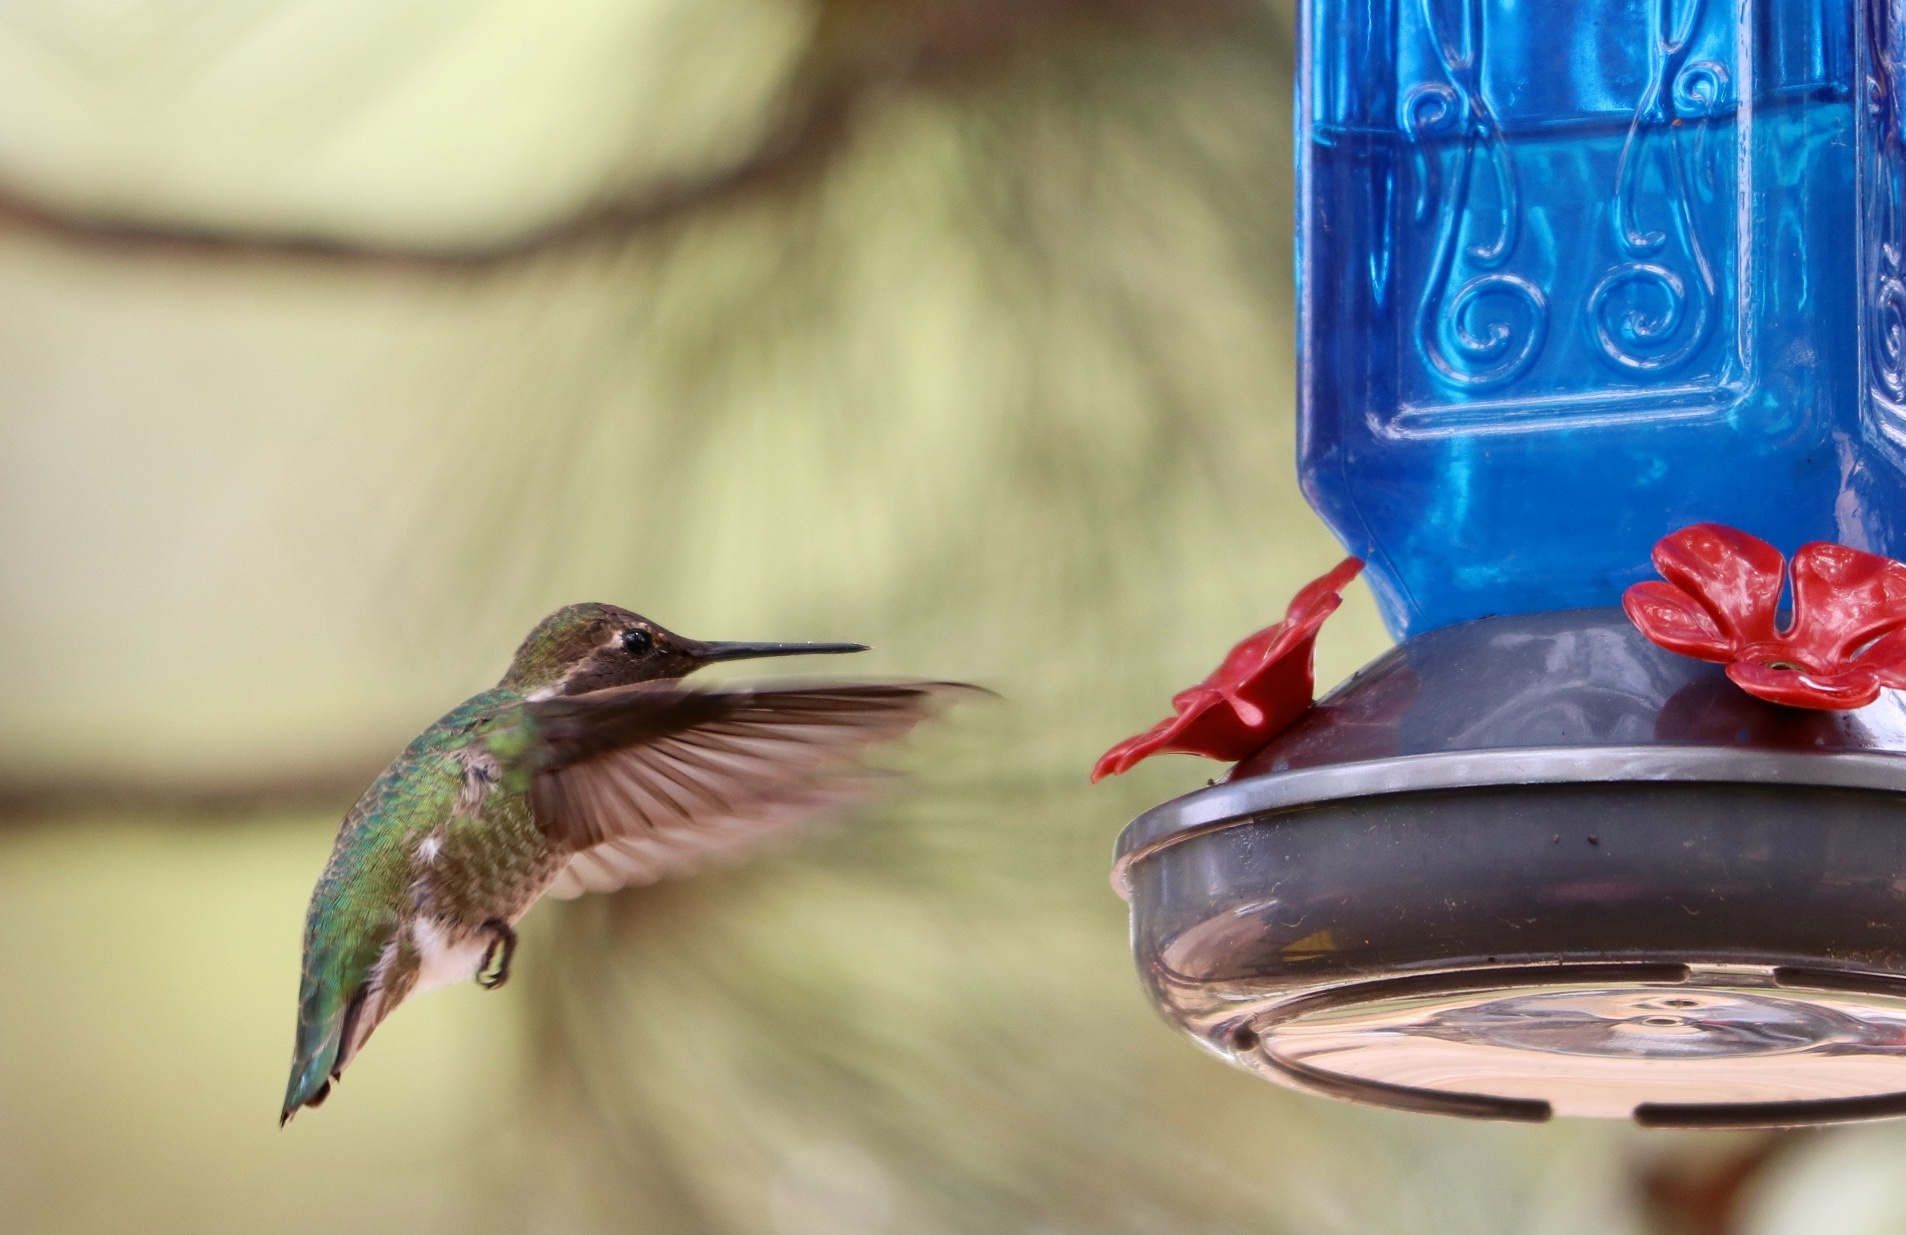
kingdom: Animalia
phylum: Chordata
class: Aves
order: Apodiformes
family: Trochilidae
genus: Calypte
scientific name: Calypte anna
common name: Anna's hummingbird
